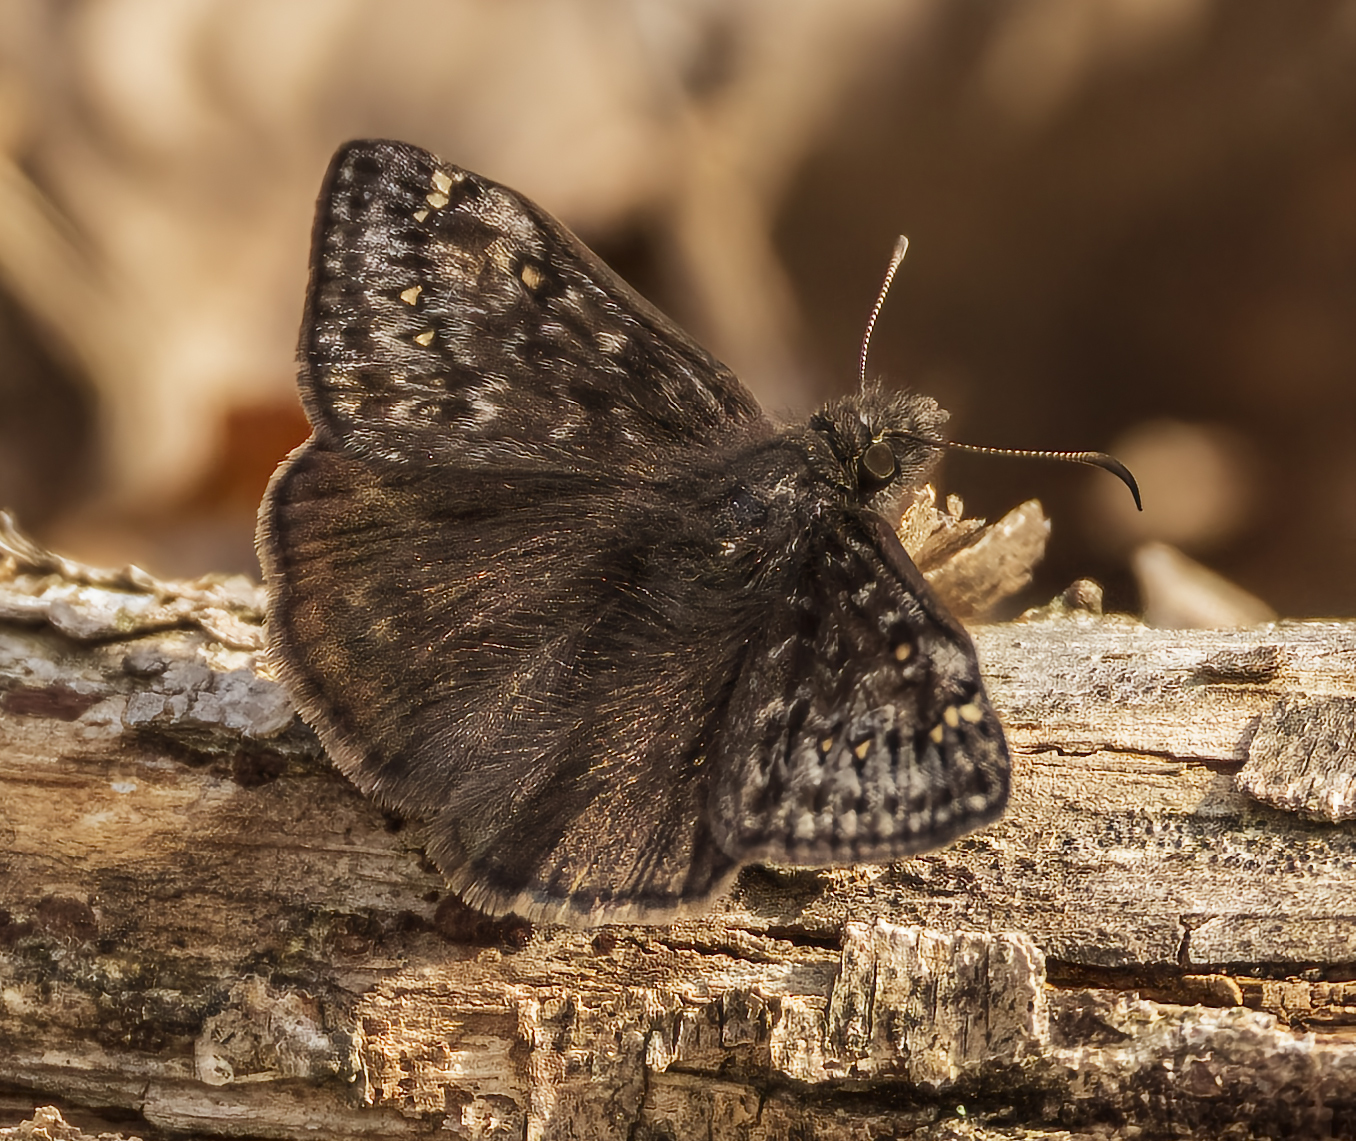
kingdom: Animalia
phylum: Arthropoda
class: Insecta
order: Lepidoptera
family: Hesperiidae
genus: Erynnis
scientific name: Erynnis juvenalis
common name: Juvenal's duskywing
